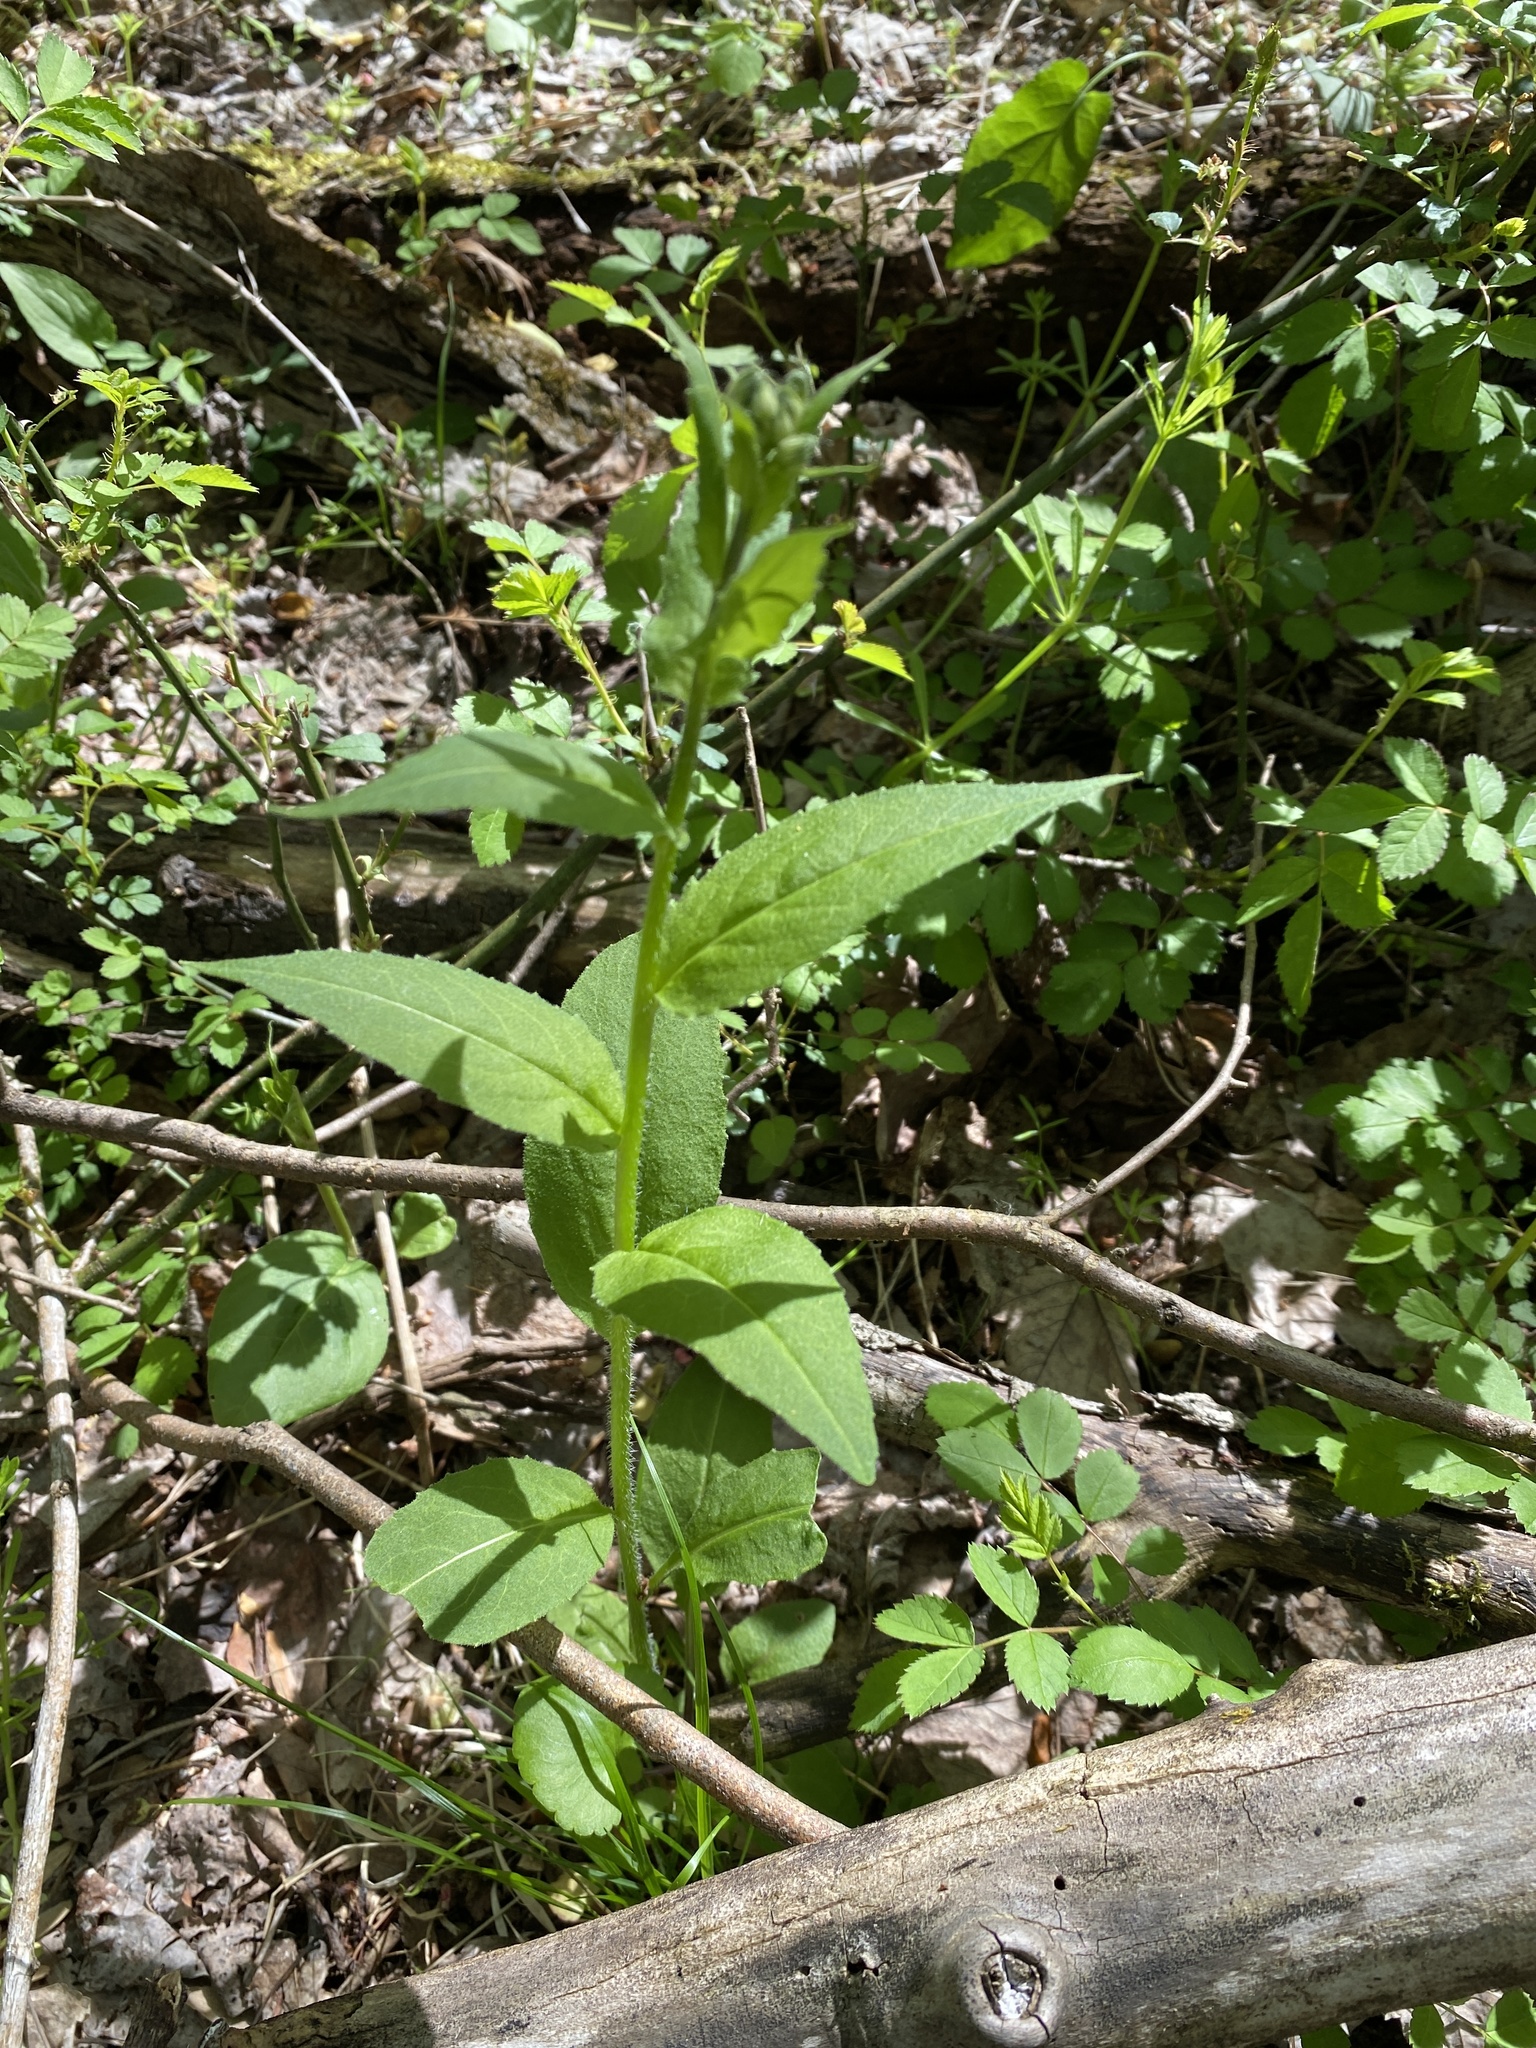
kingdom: Plantae
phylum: Tracheophyta
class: Magnoliopsida
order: Brassicales
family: Brassicaceae
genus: Hesperis
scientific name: Hesperis matronalis
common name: Dame's-violet
